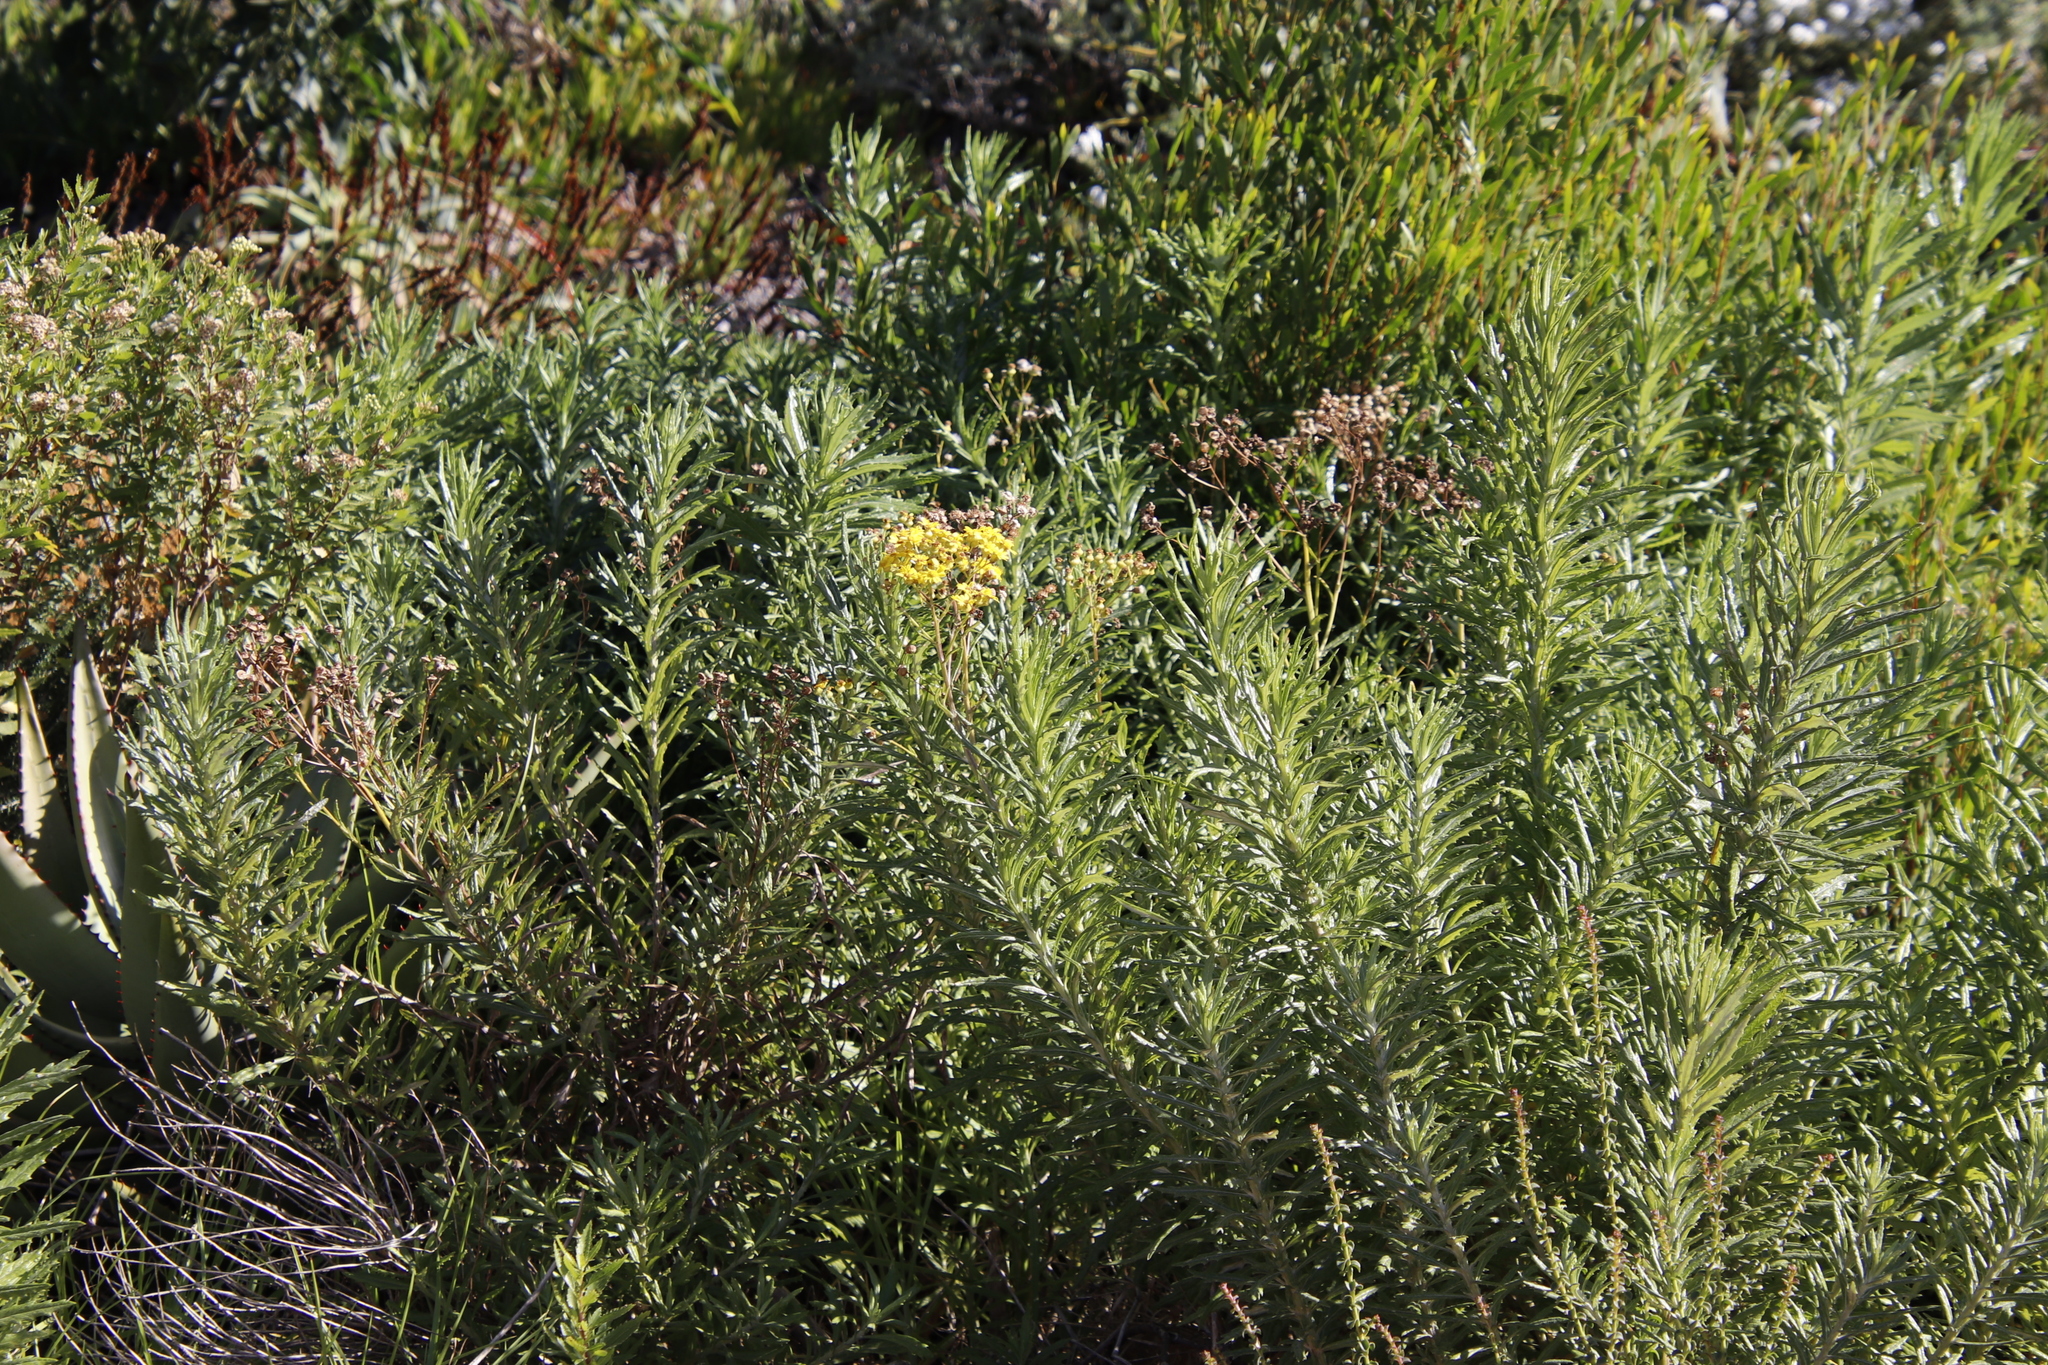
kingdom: Plantae
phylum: Tracheophyta
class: Magnoliopsida
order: Asterales
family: Asteraceae
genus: Senecio
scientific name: Senecio pterophorus
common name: Shoddy ragwort
